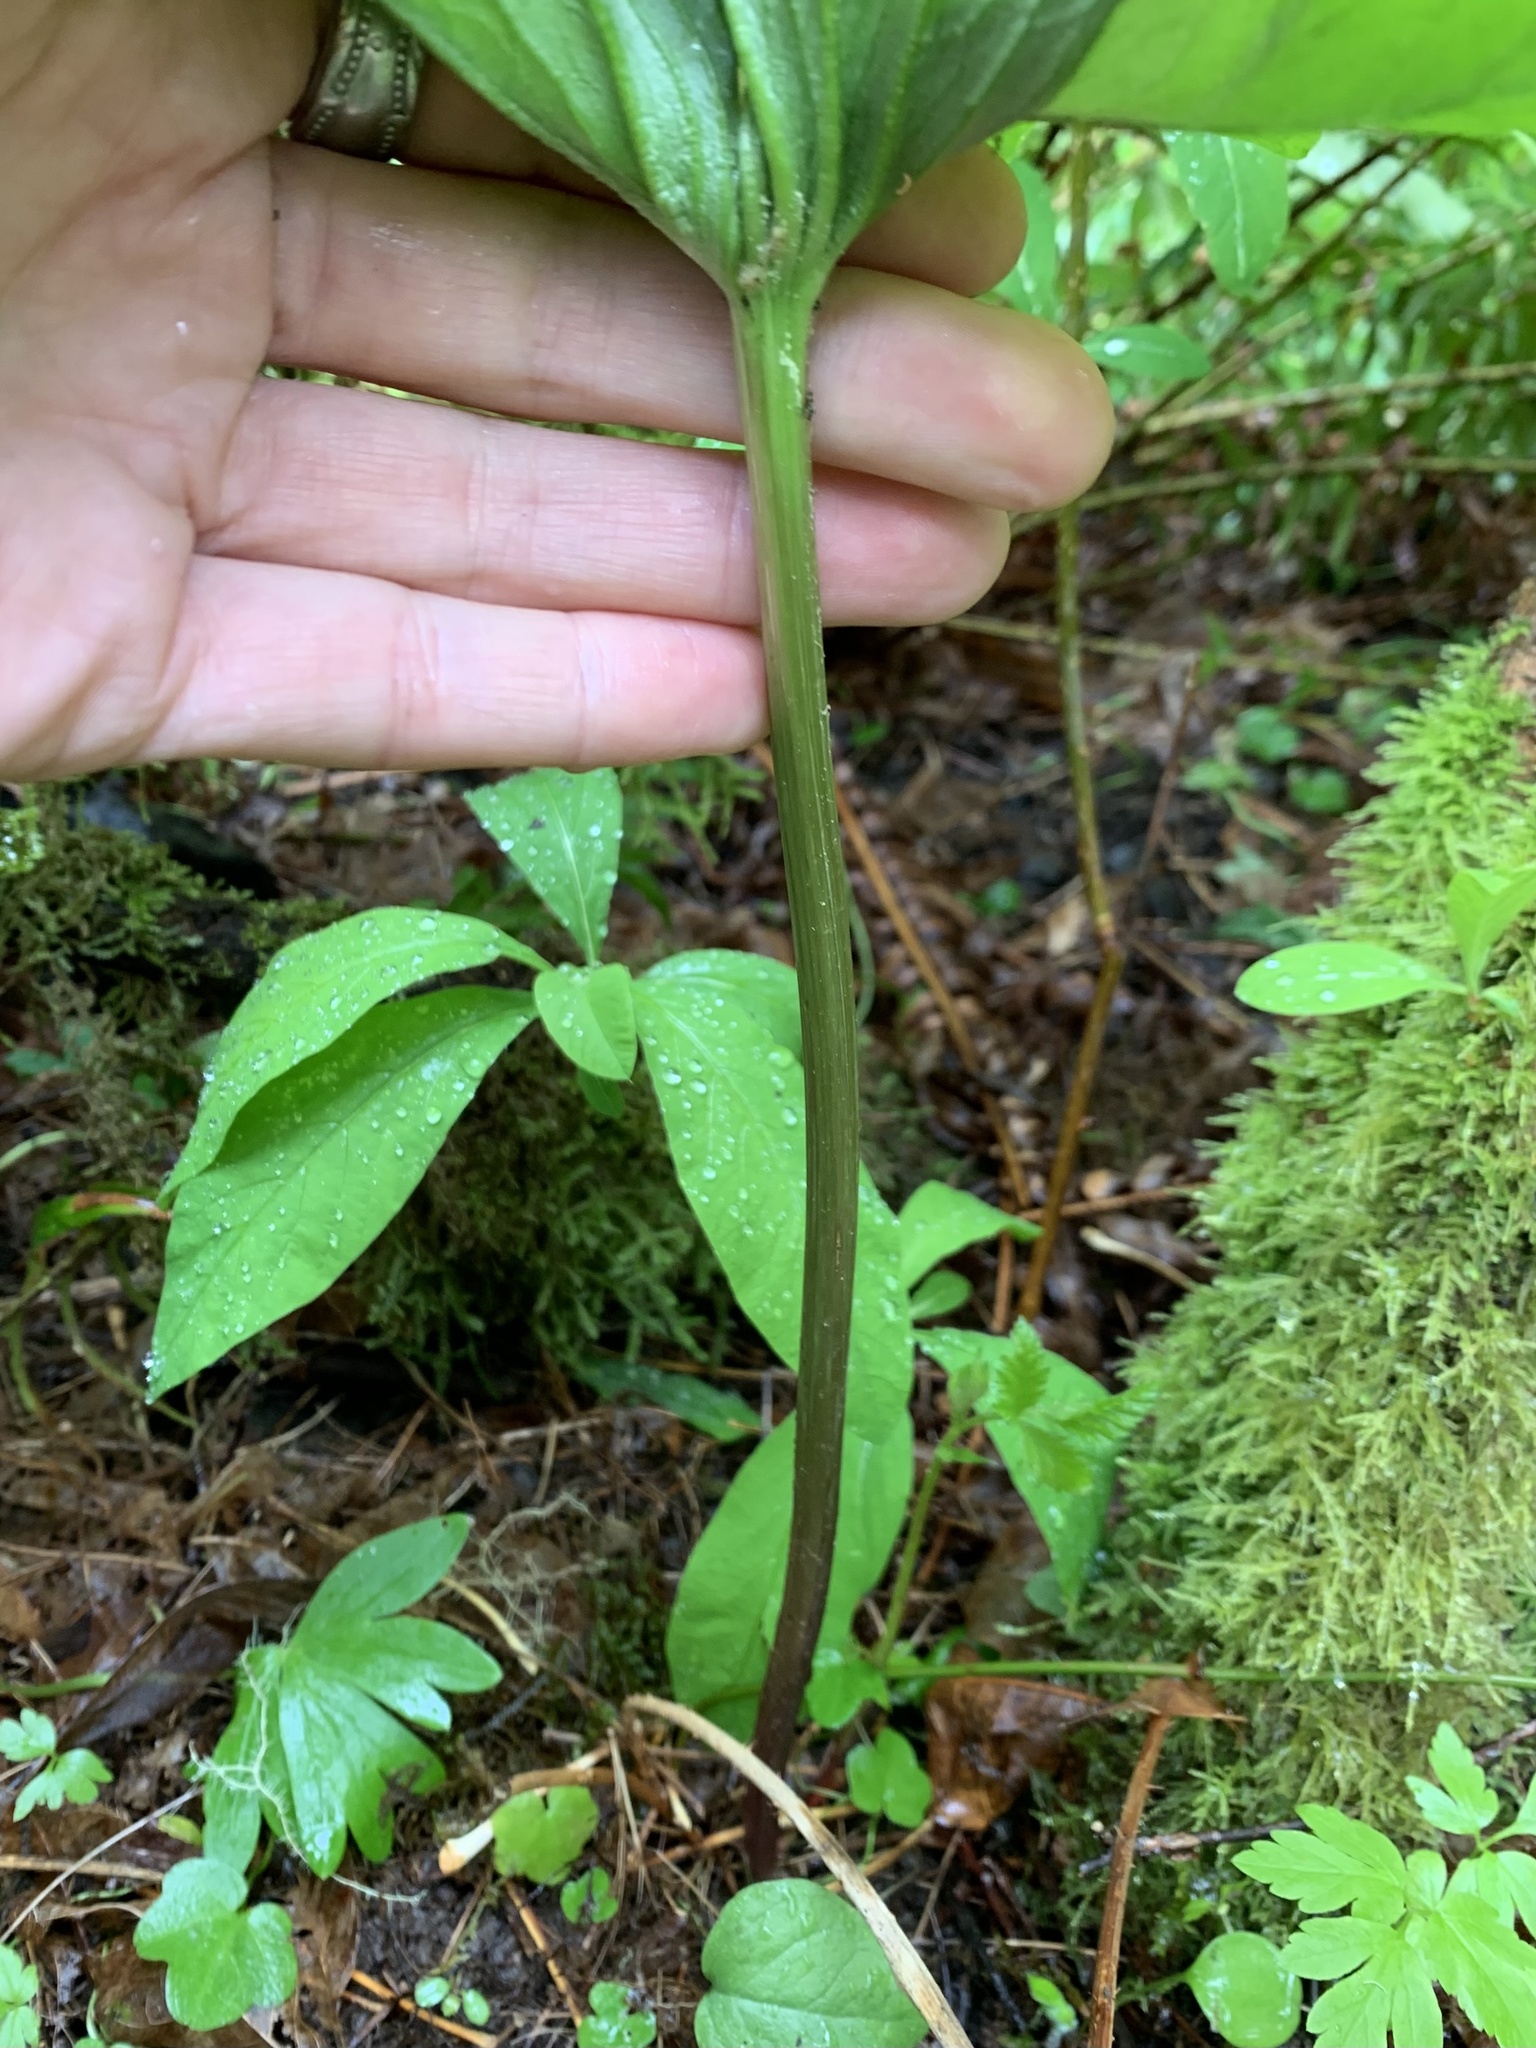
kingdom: Plantae
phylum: Tracheophyta
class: Liliopsida
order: Liliales
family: Melanthiaceae
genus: Trillium
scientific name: Trillium albidum
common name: Freeman's trillium
